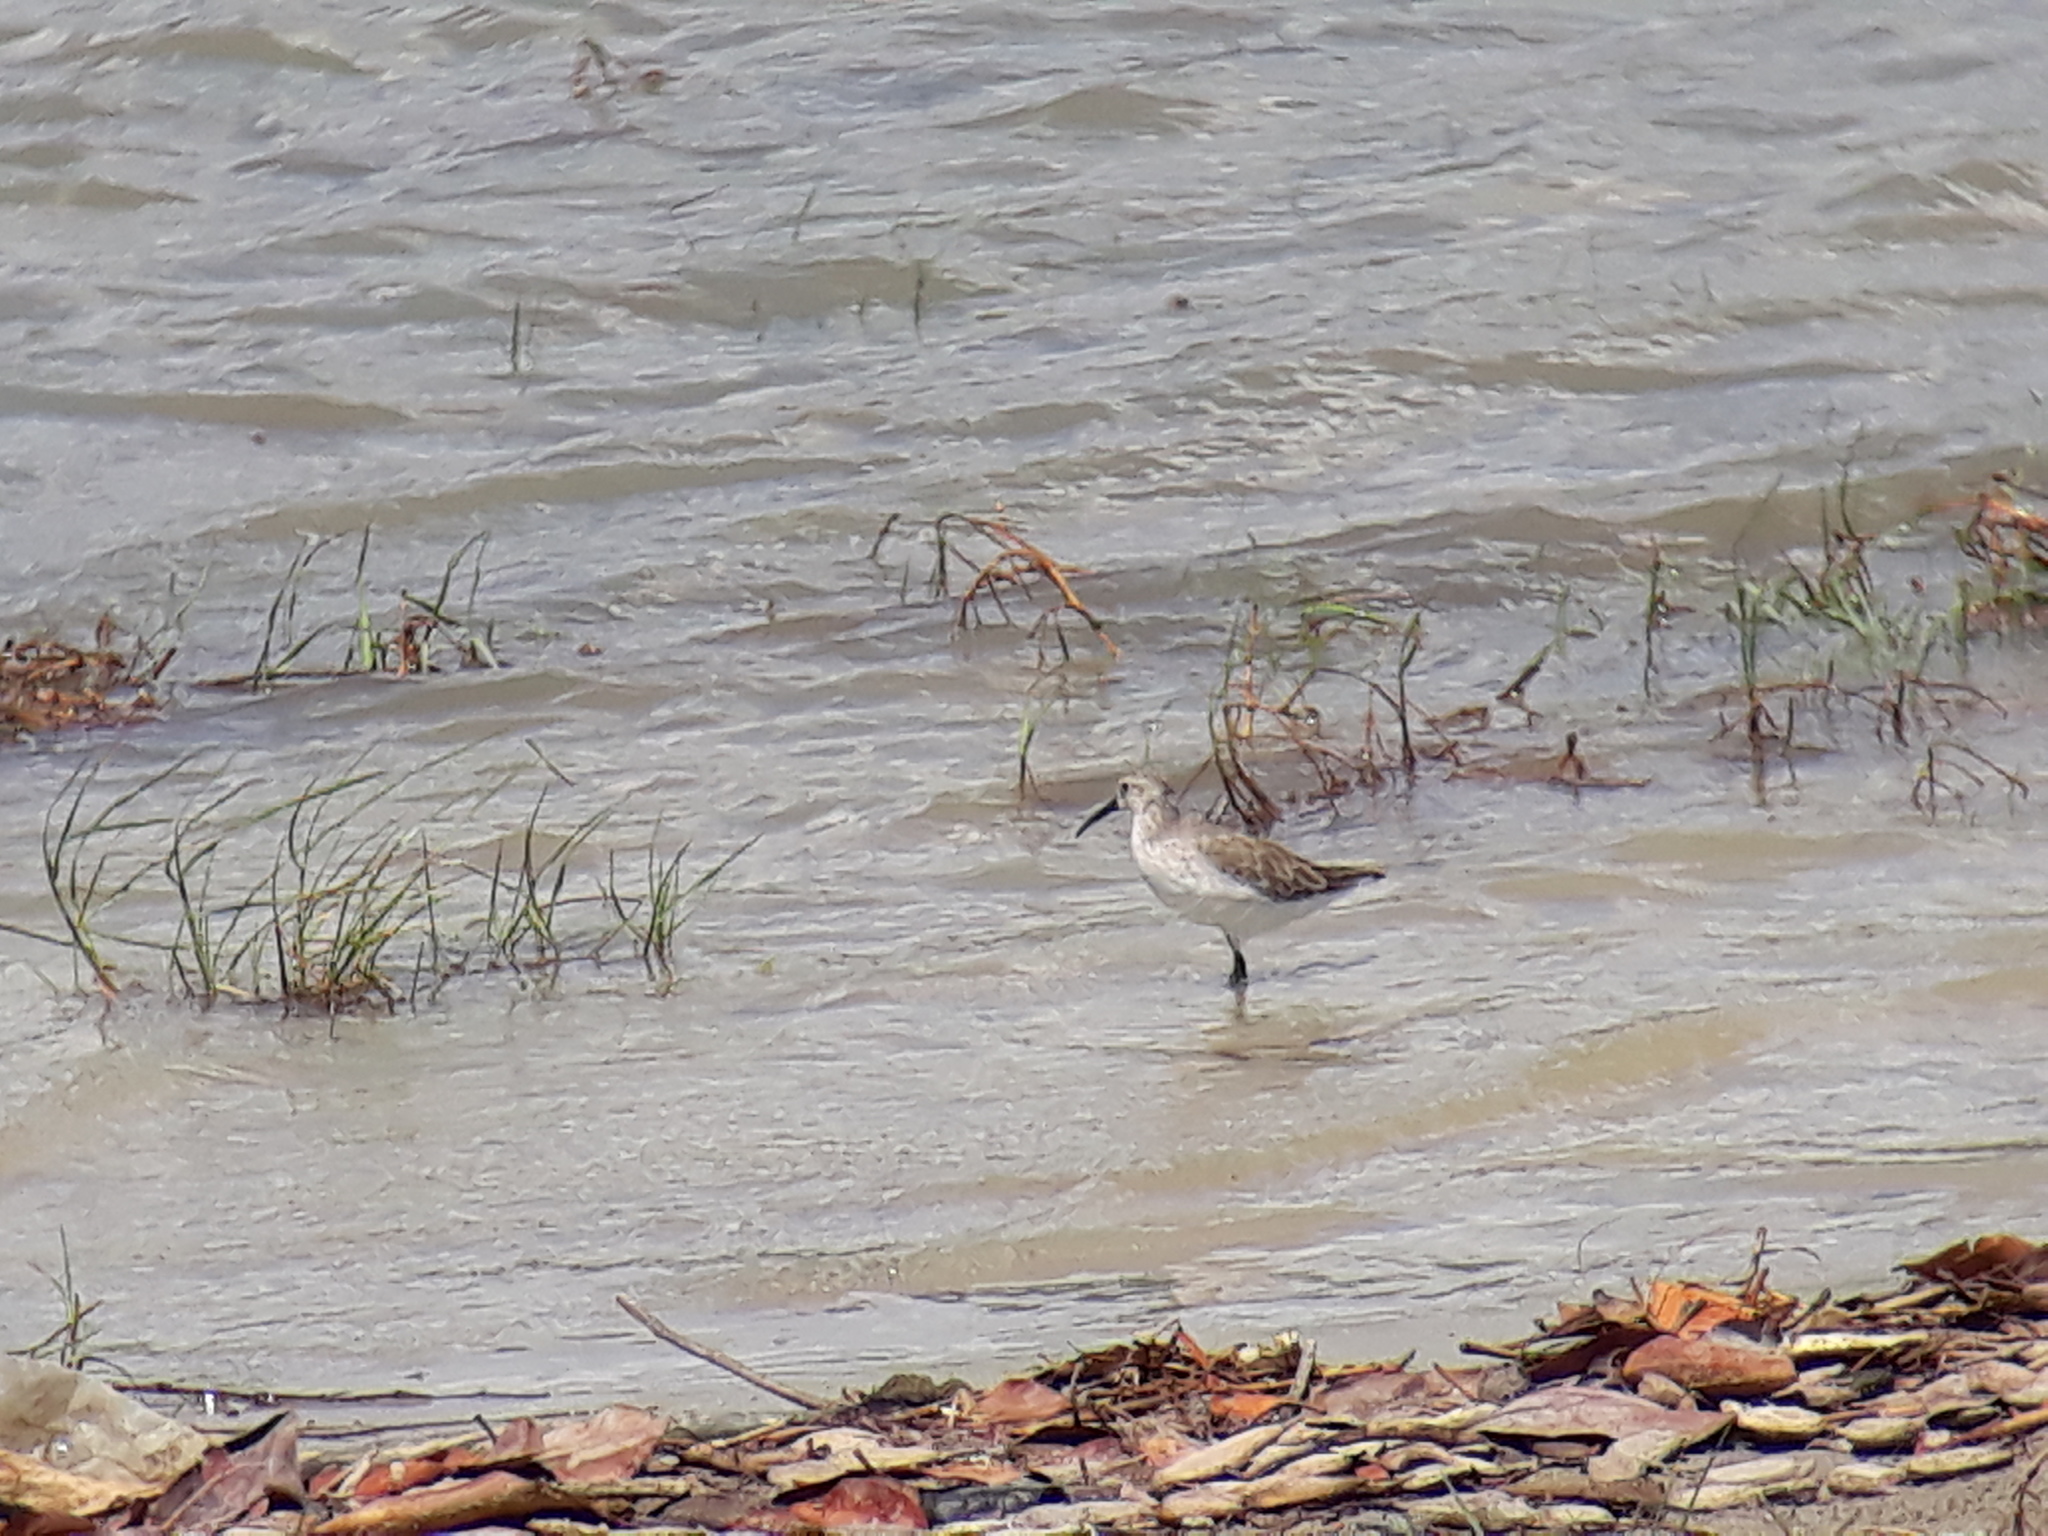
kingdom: Animalia
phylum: Chordata
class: Aves
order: Charadriiformes
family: Scolopacidae
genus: Calidris
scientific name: Calidris ferruginea
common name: Curlew sandpiper
